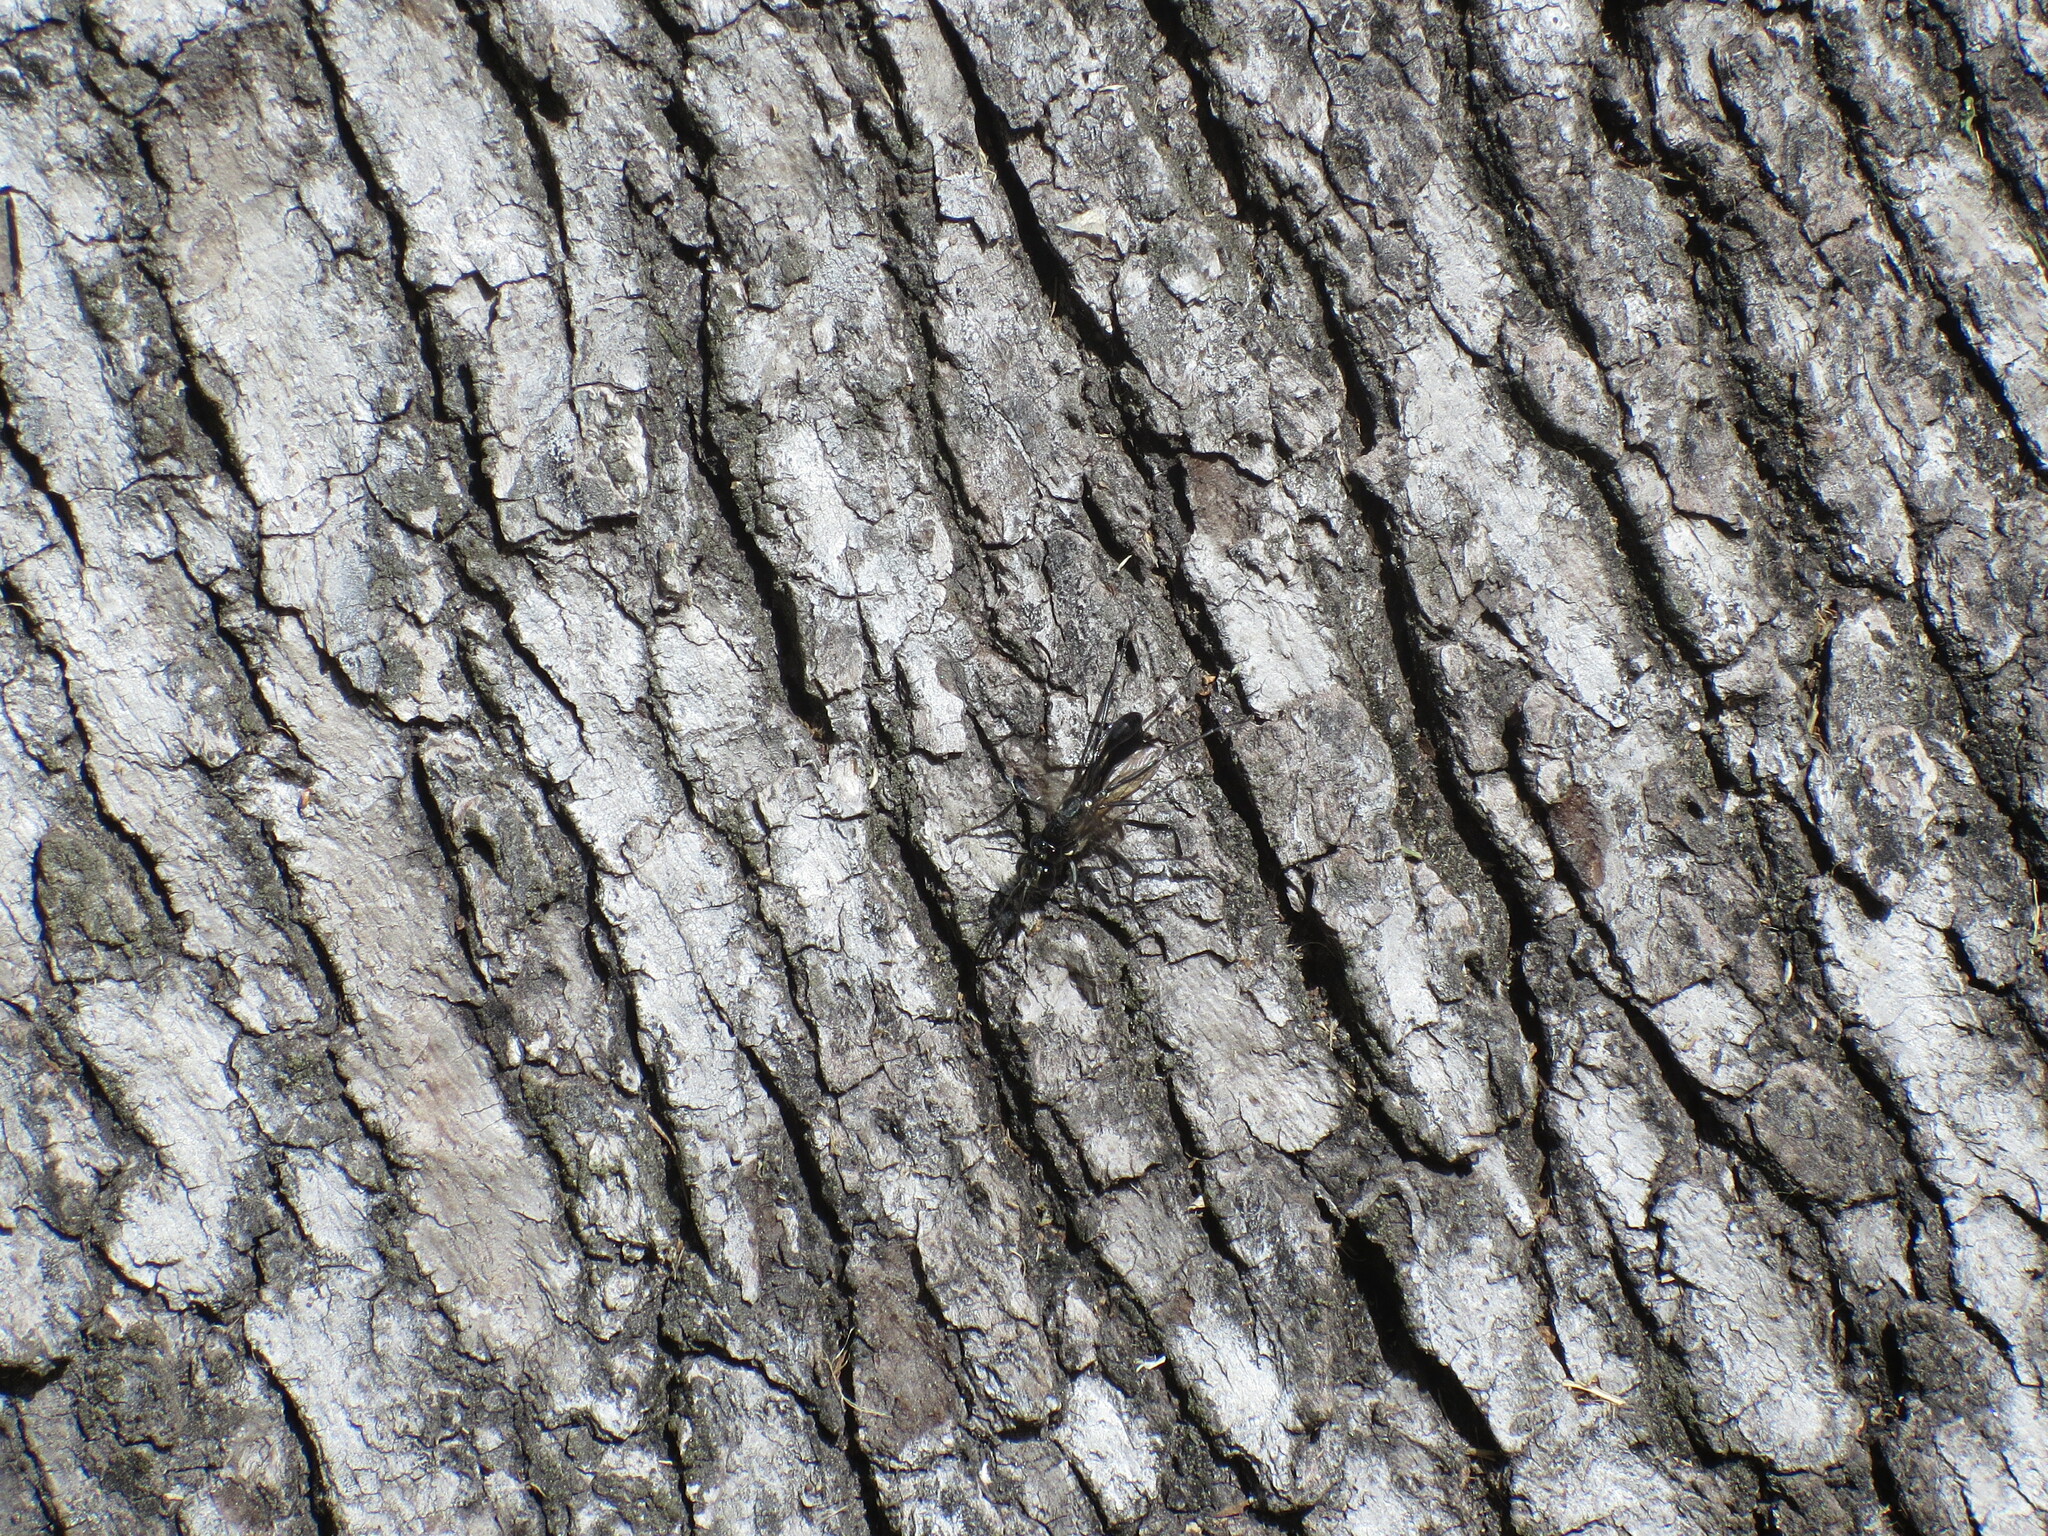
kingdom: Animalia
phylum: Arthropoda
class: Insecta
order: Hymenoptera
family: Sphecidae
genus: Eremnophila
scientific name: Eremnophila aureonotata
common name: Gold-marked thread-waisted wasp
